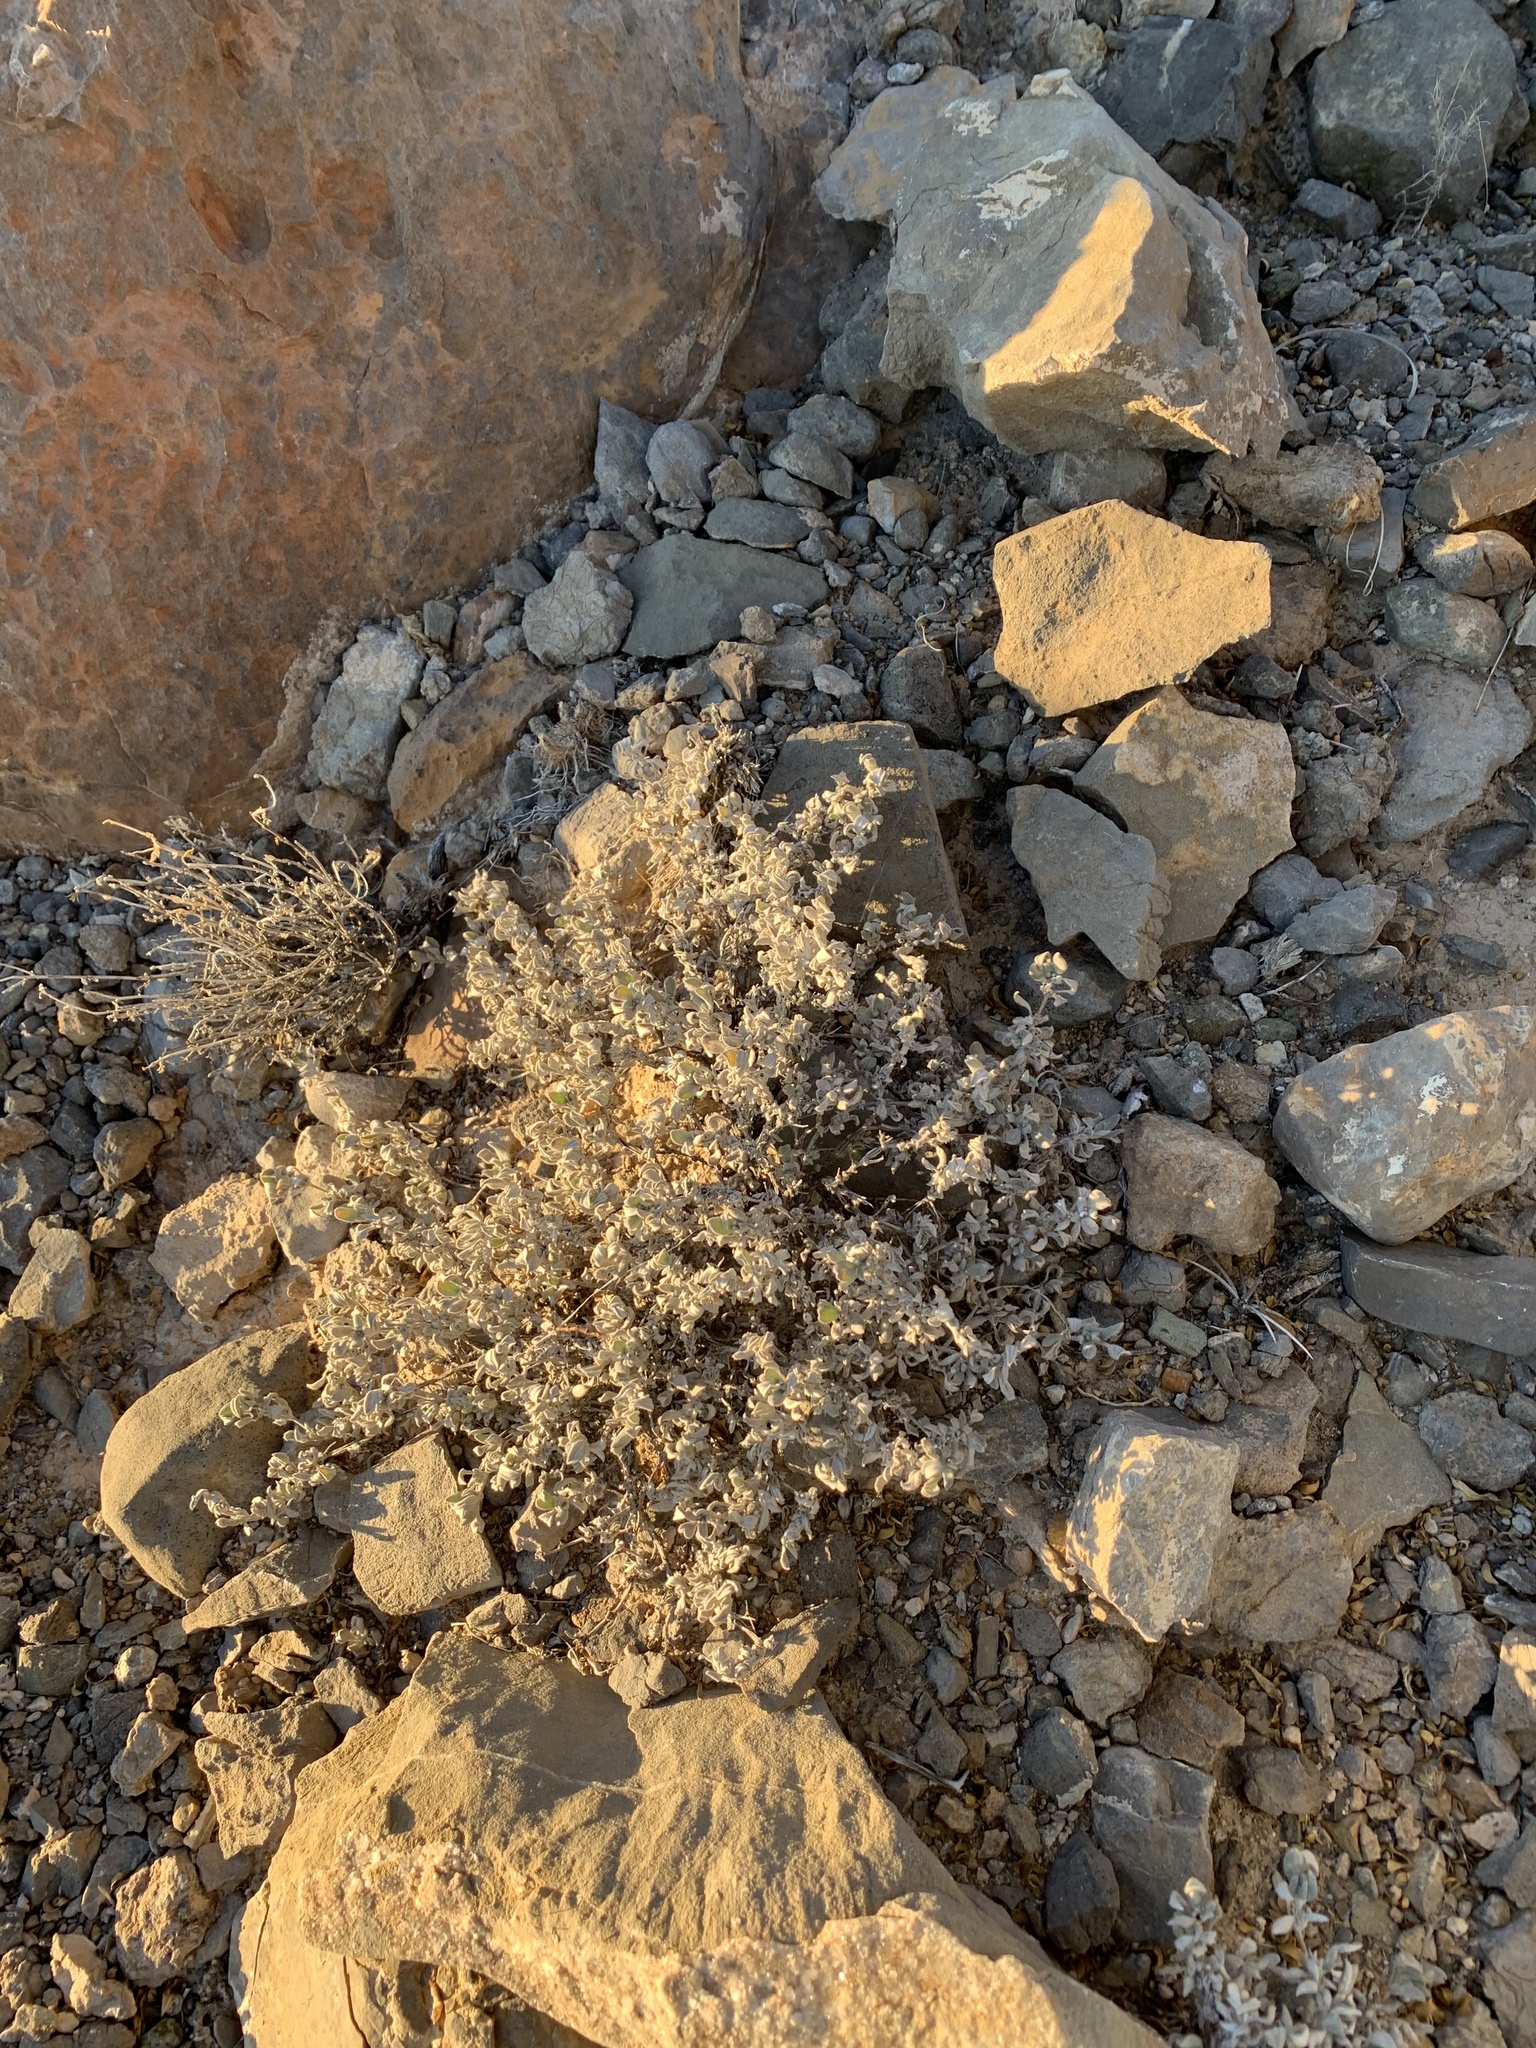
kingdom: Plantae
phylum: Tracheophyta
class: Magnoliopsida
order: Boraginales
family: Ehretiaceae
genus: Tiquilia
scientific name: Tiquilia canescens
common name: Hairy tiquilia
